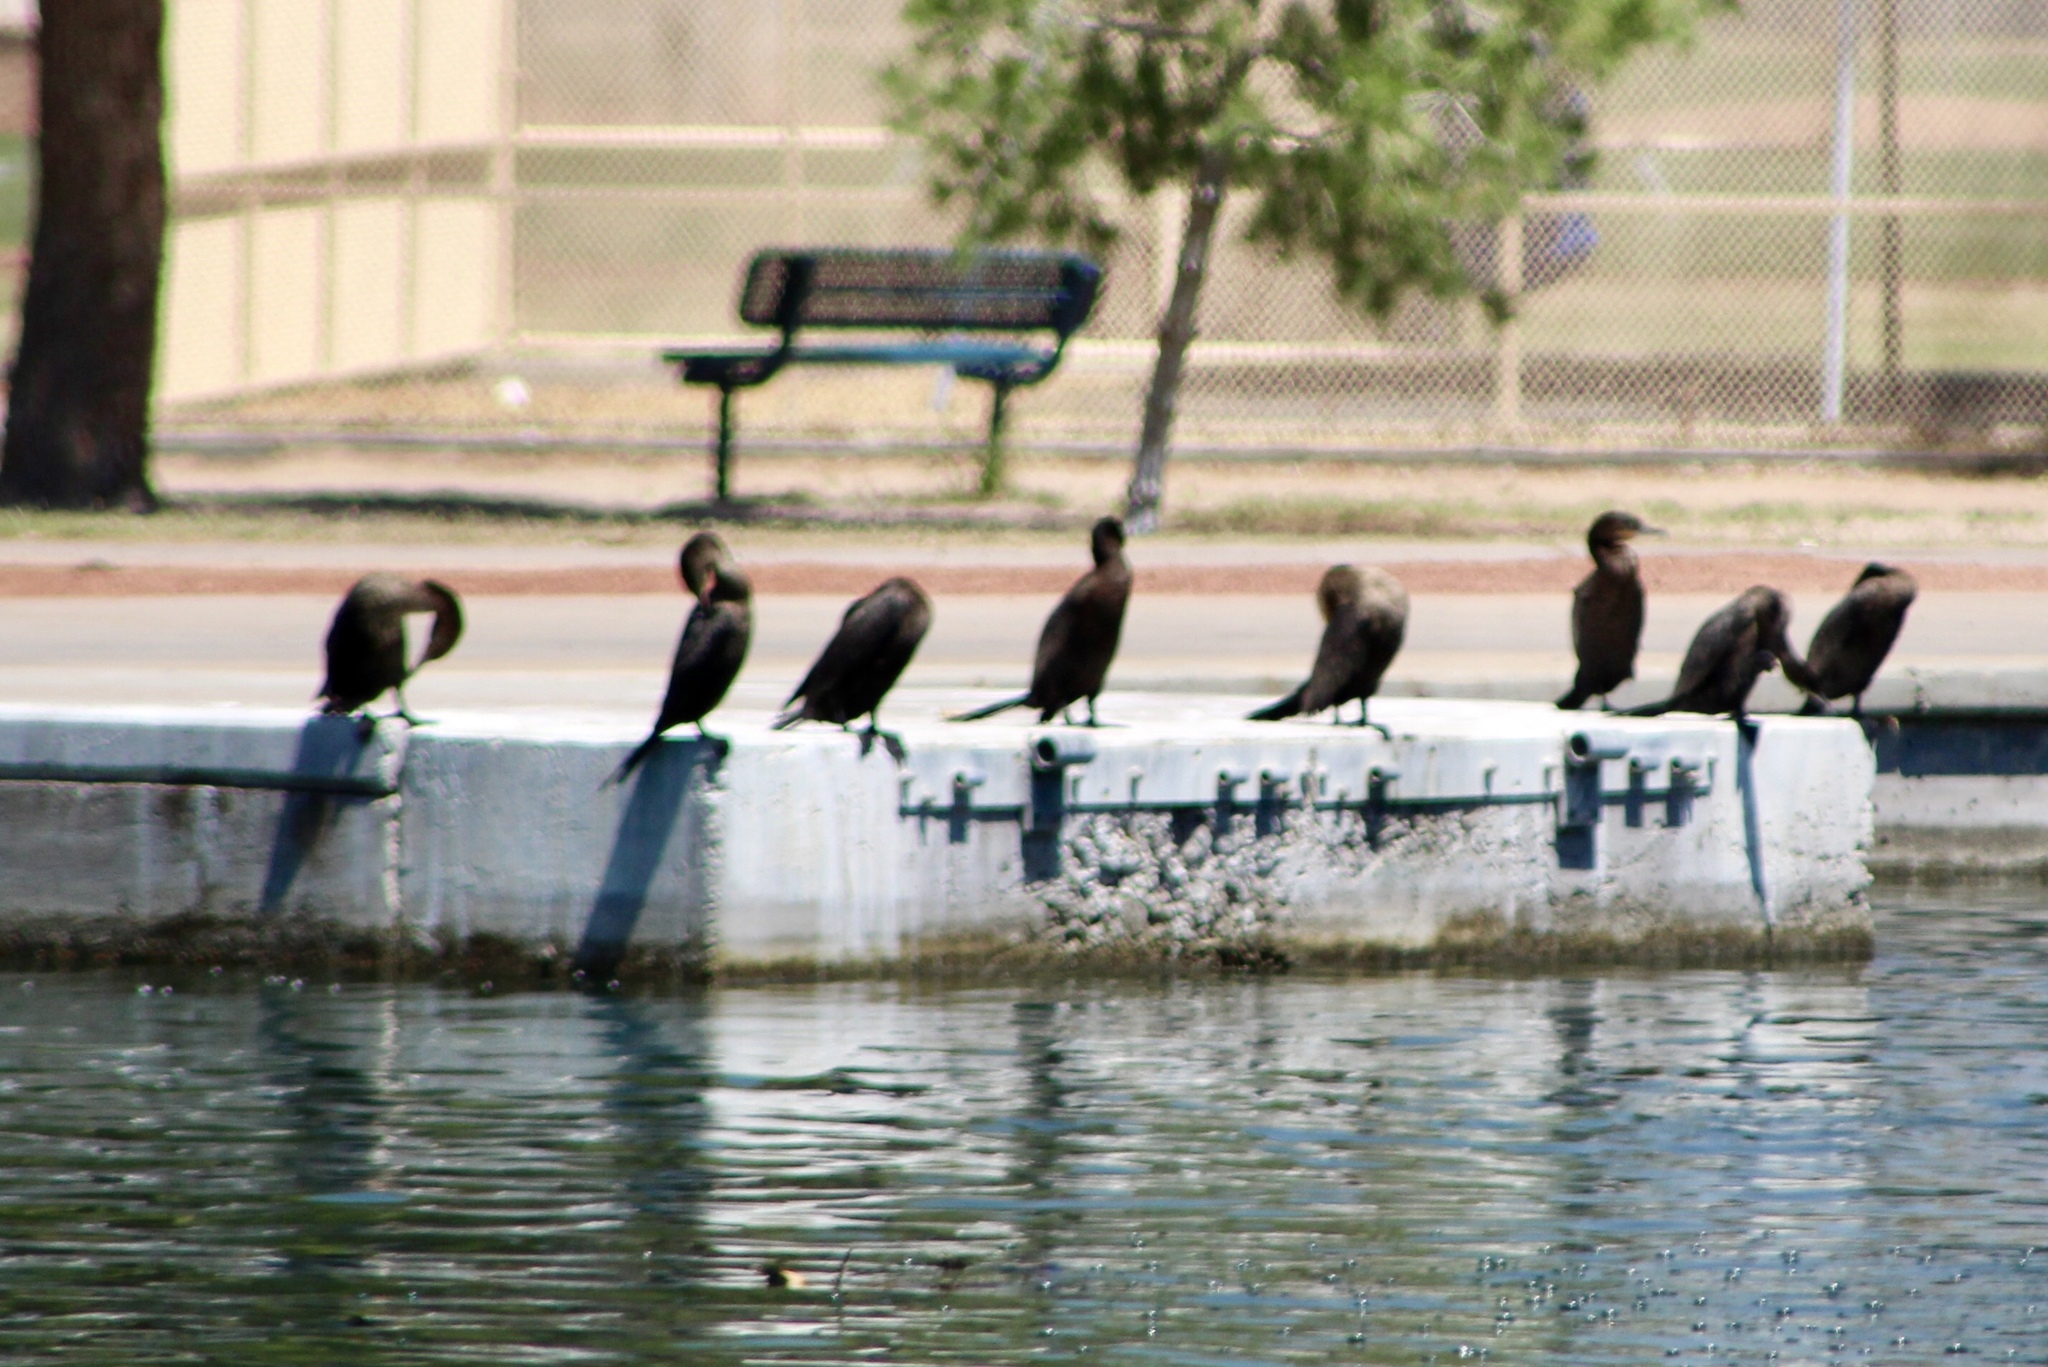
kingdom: Animalia
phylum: Chordata
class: Aves
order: Suliformes
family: Phalacrocoracidae
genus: Phalacrocorax
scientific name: Phalacrocorax brasilianus
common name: Neotropic cormorant
